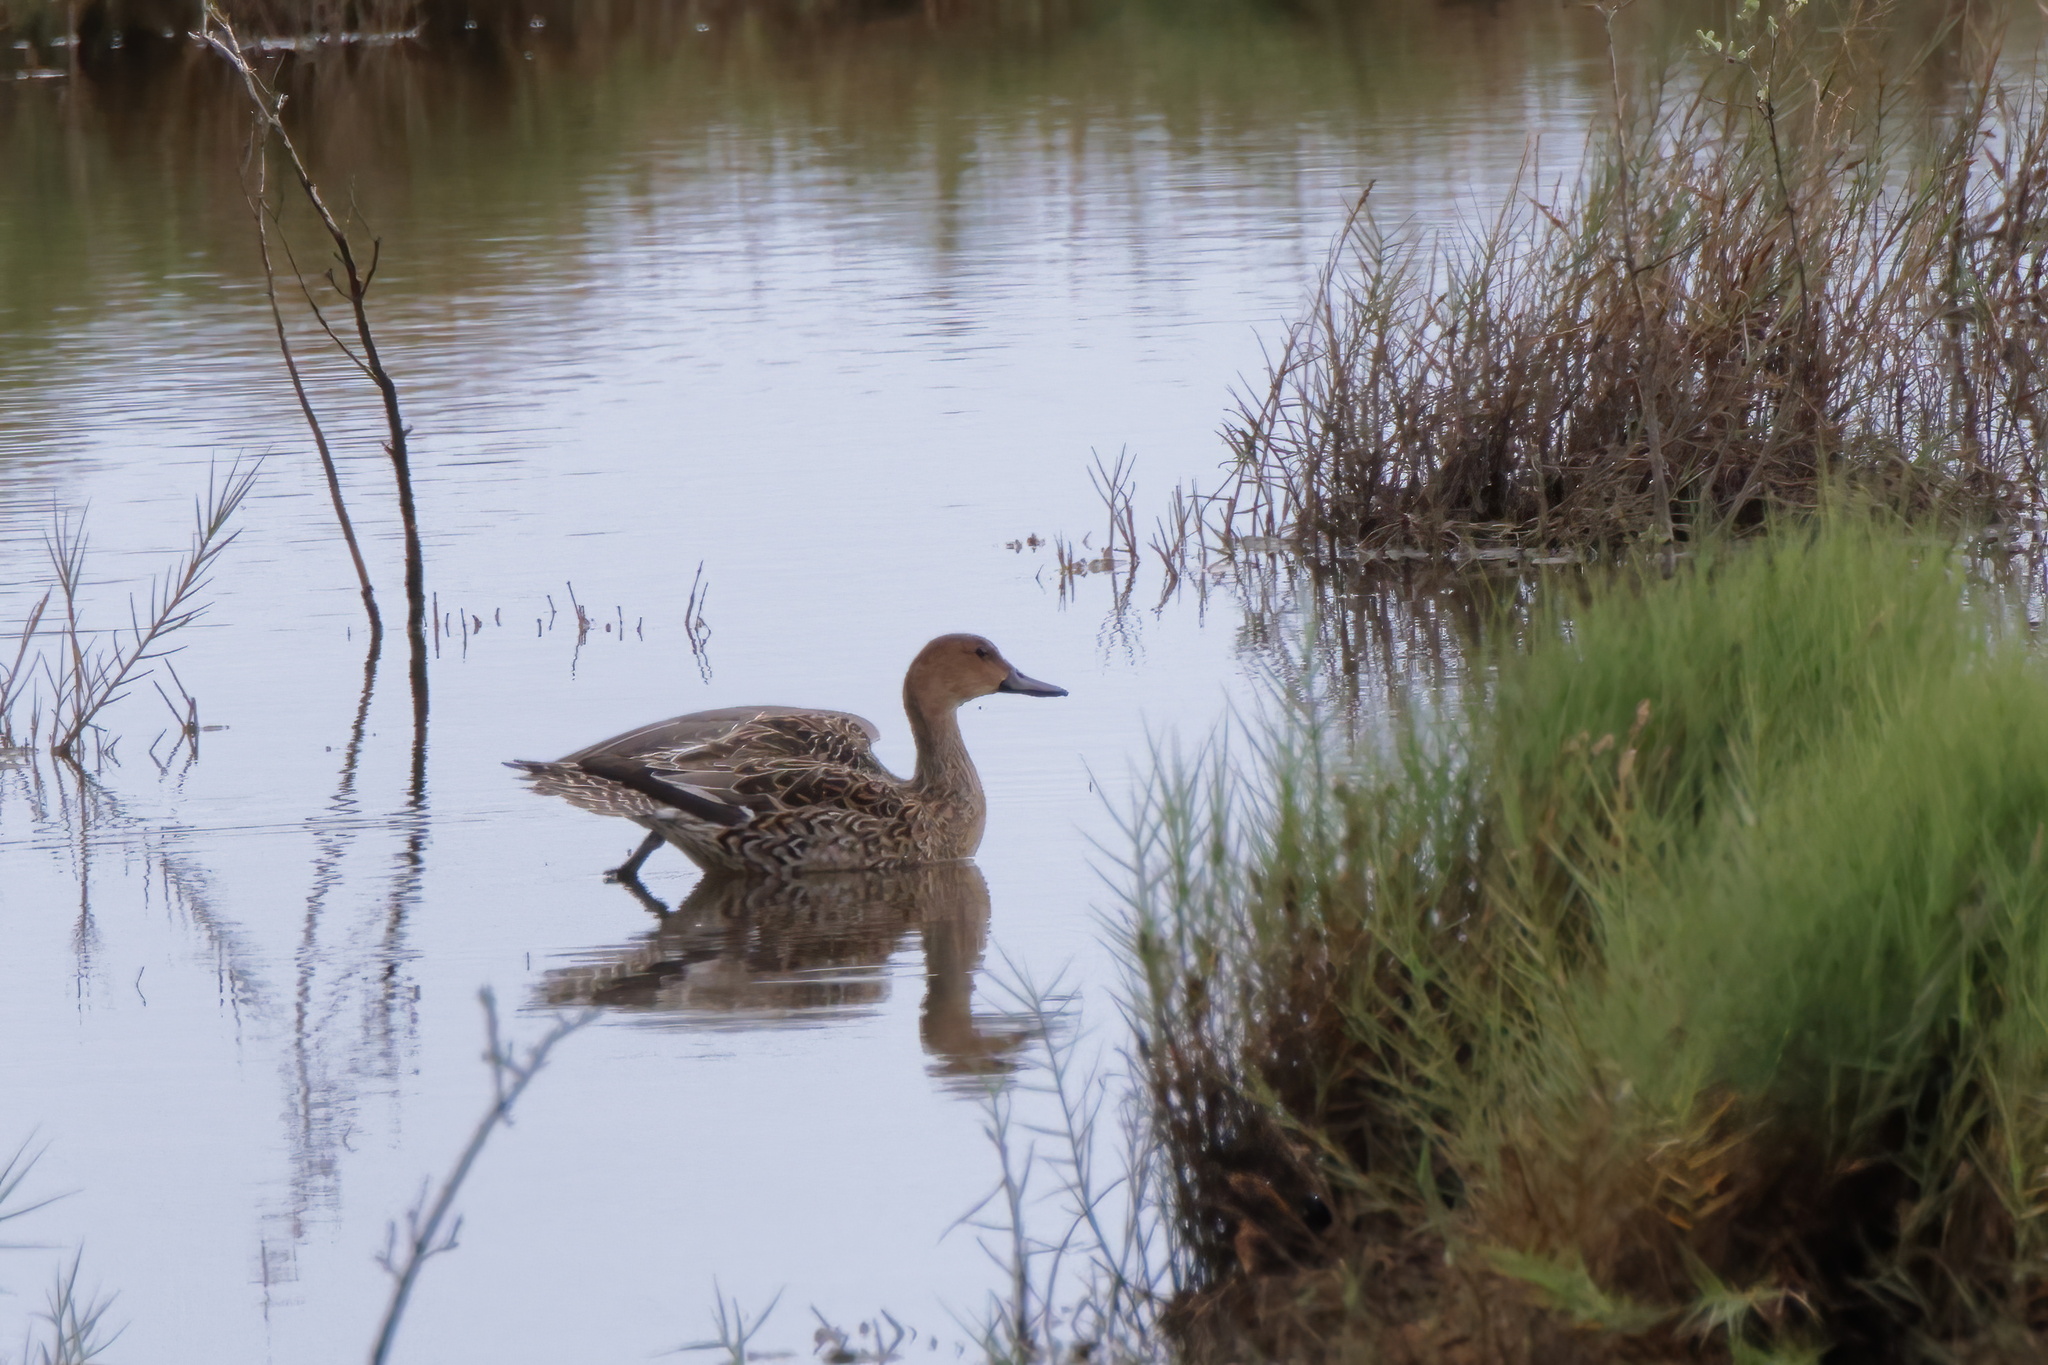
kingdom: Animalia
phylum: Chordata
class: Aves
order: Anseriformes
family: Anatidae
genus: Anas
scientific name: Anas acuta
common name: Northern pintail
